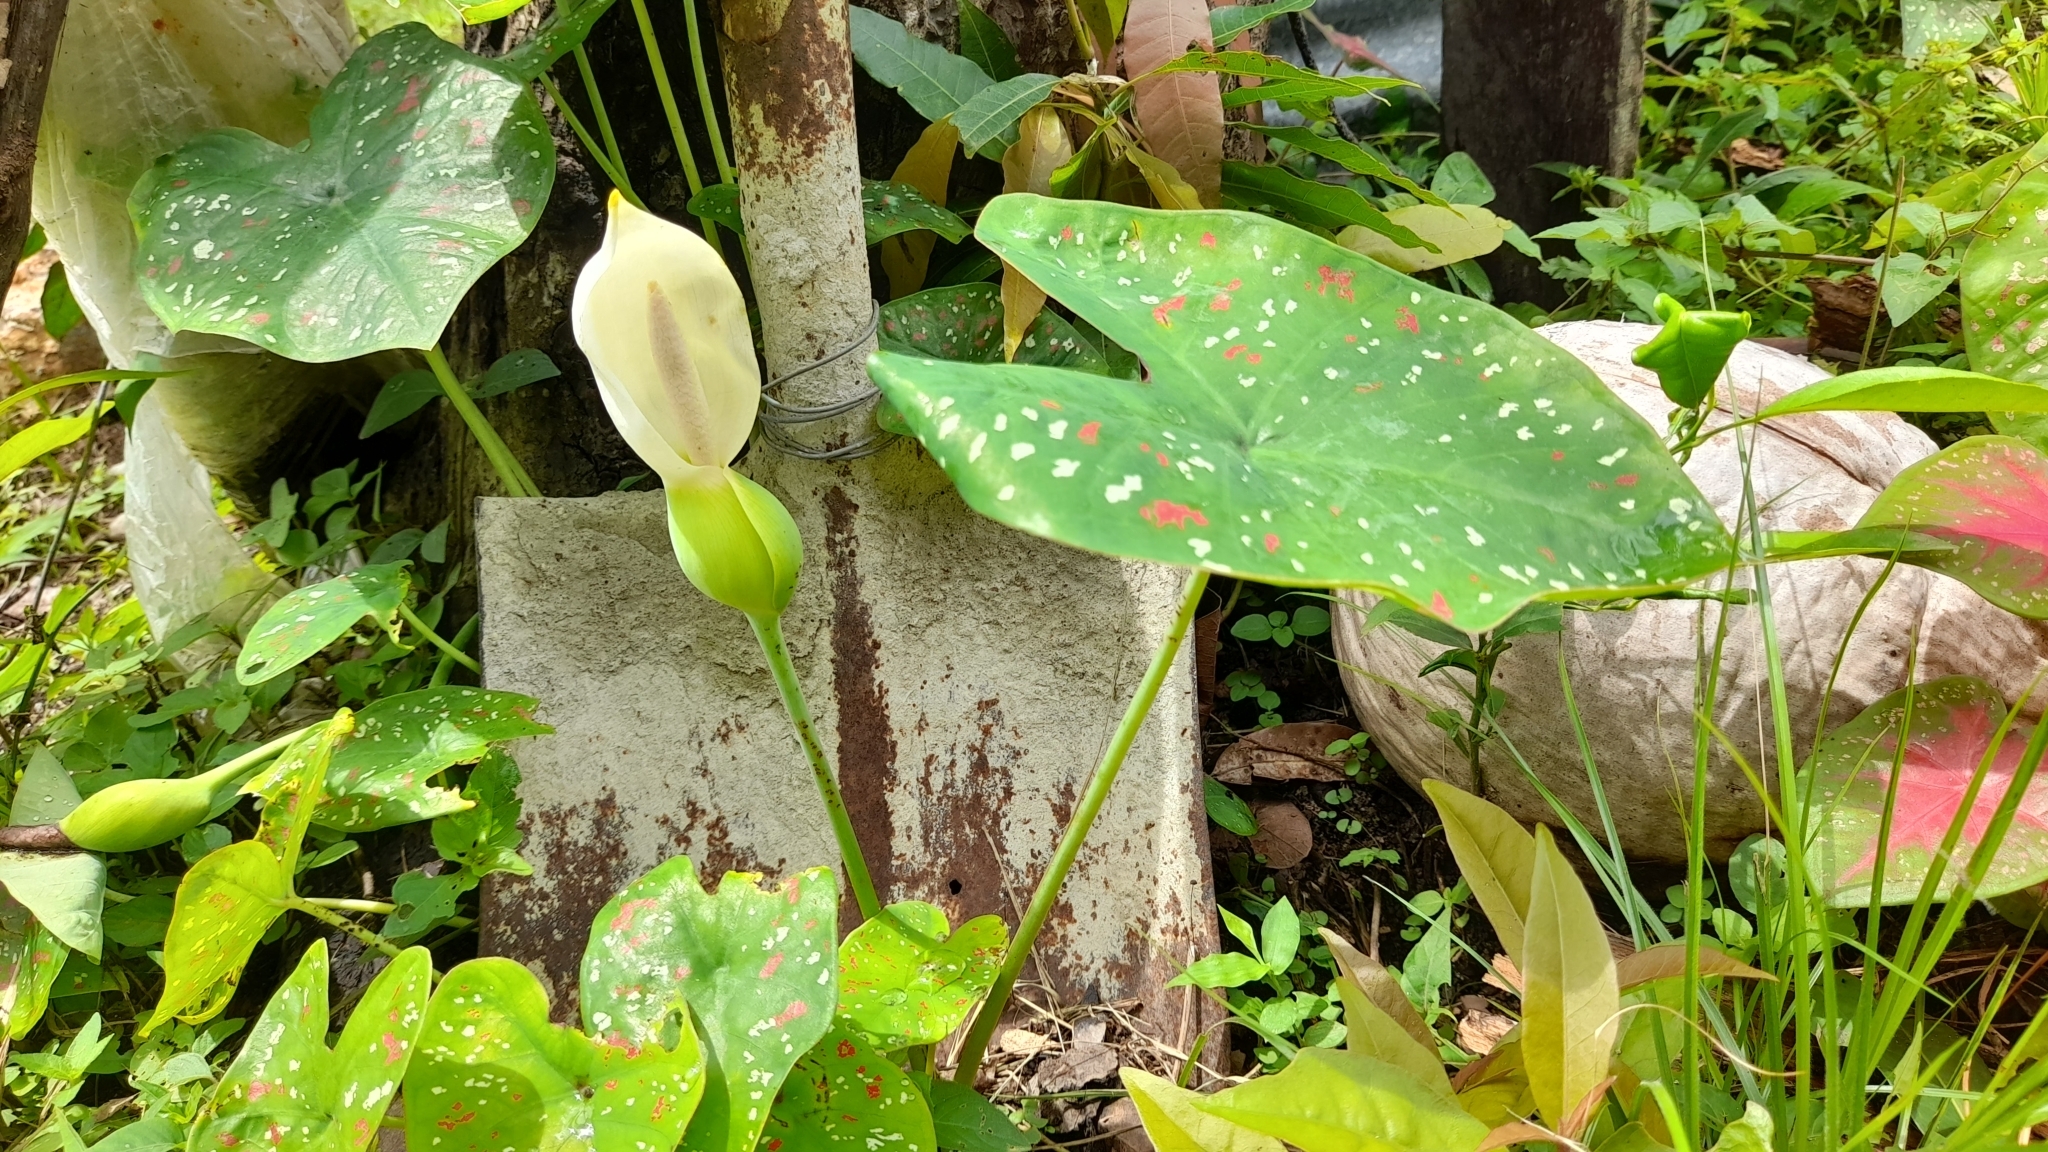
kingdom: Plantae
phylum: Tracheophyta
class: Liliopsida
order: Alismatales
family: Araceae
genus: Caladium
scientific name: Caladium bicolor
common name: Artist's pallet
